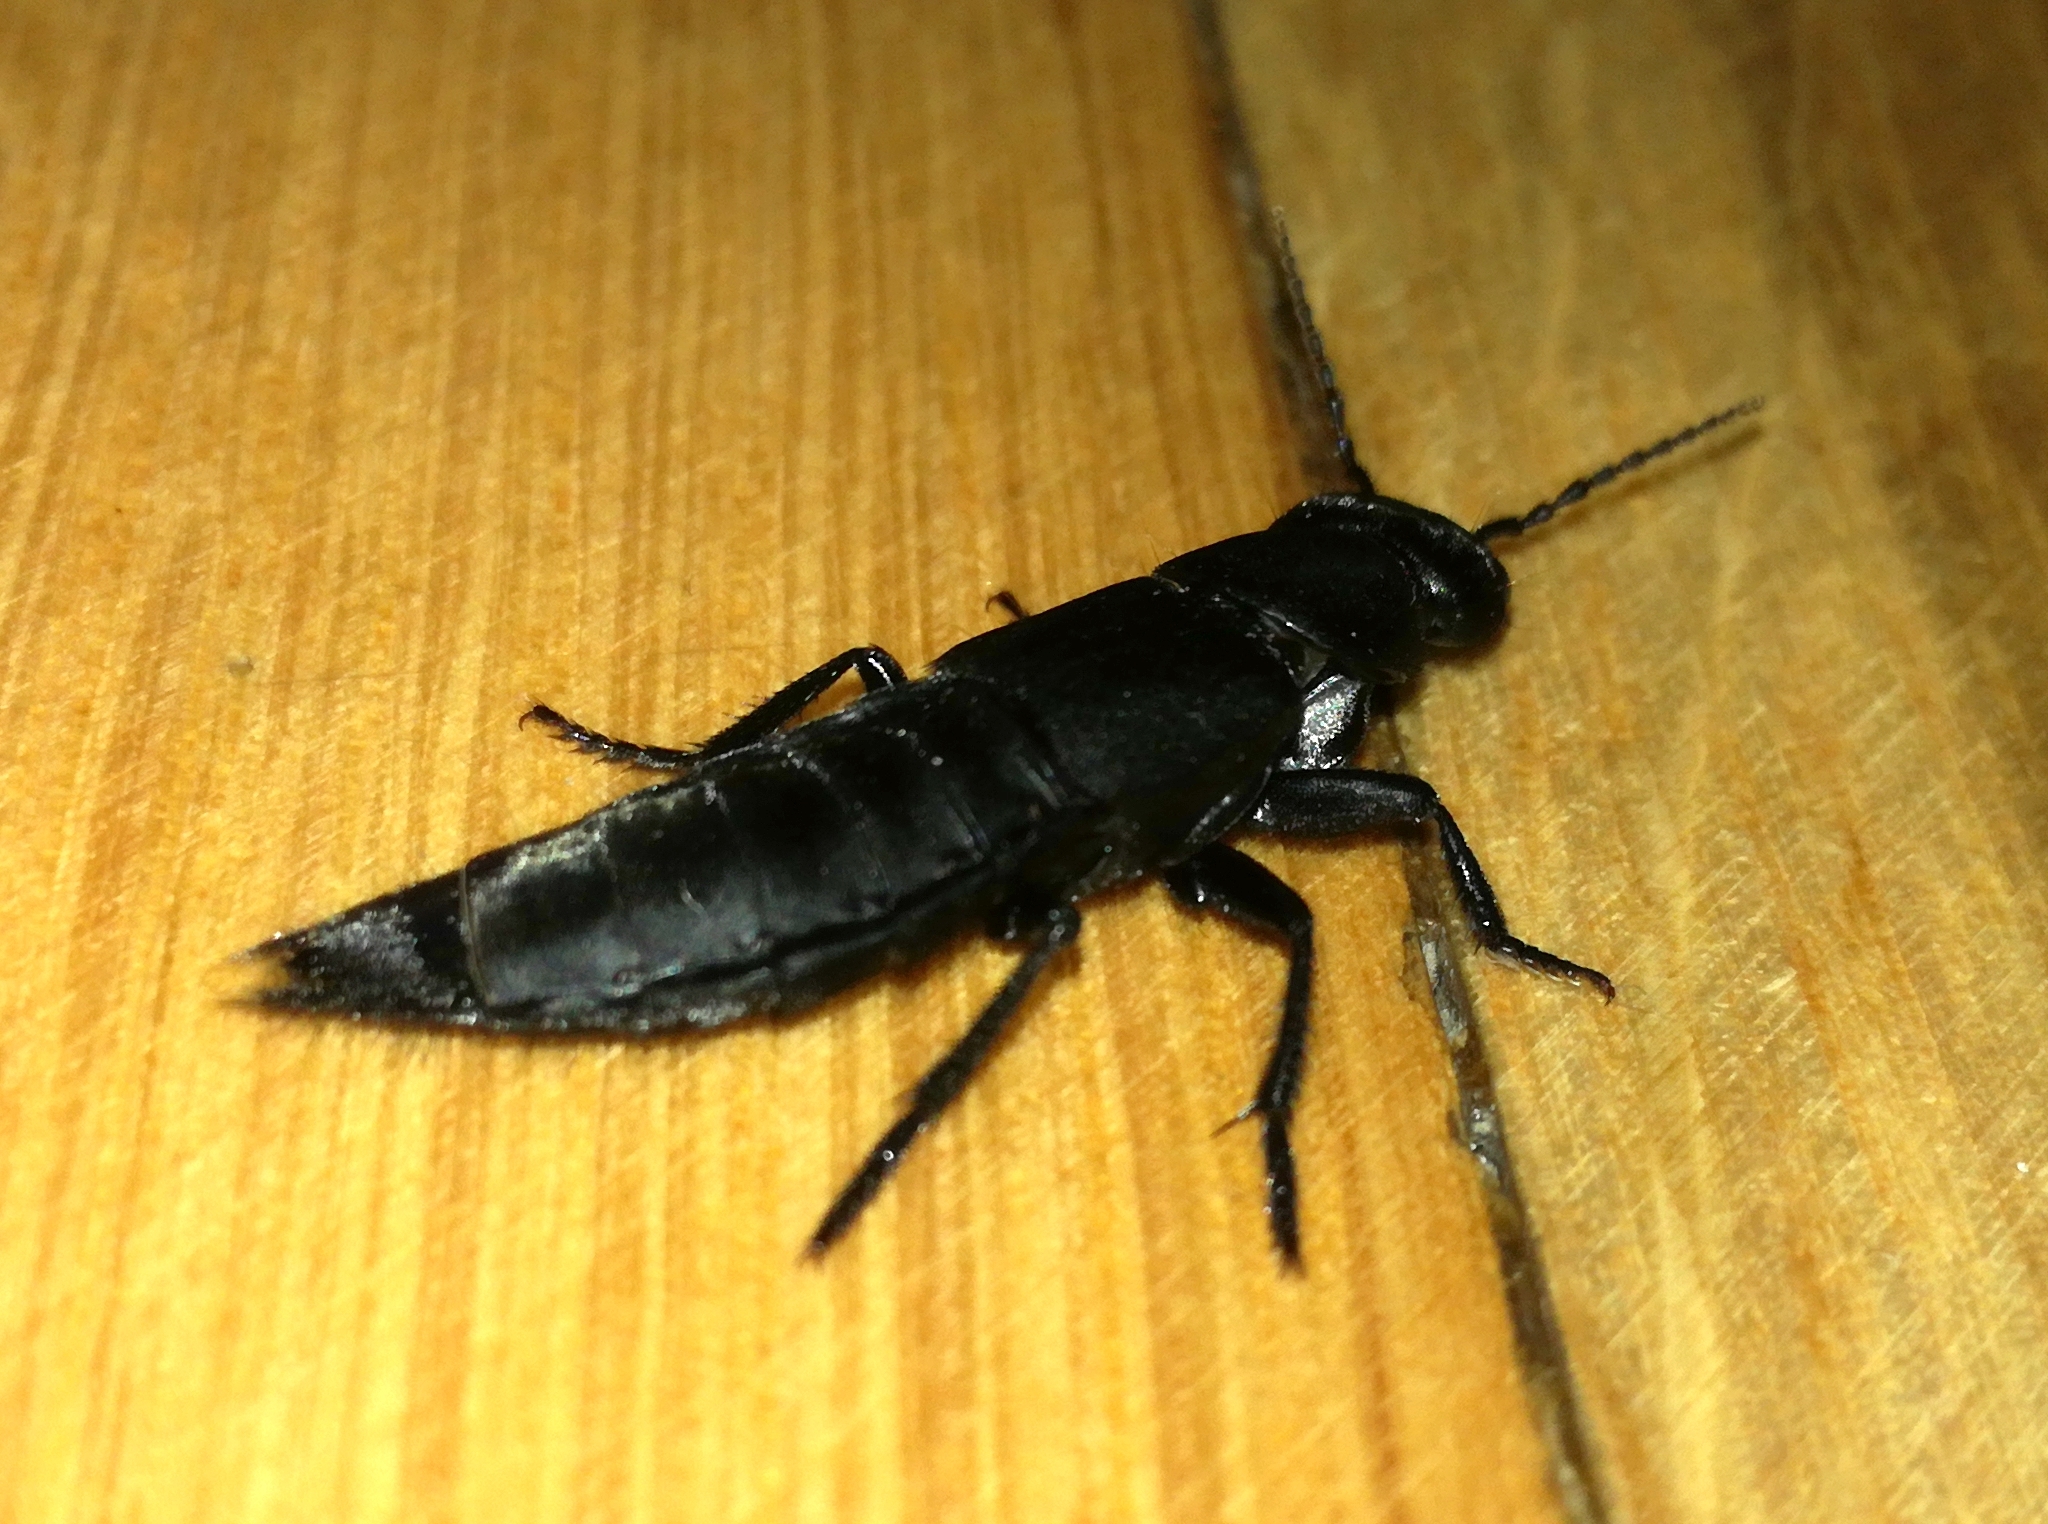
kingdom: Animalia
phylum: Arthropoda
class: Insecta
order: Coleoptera
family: Staphylinidae
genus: Ocypus
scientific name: Ocypus olens
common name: Devil's coach-horse
